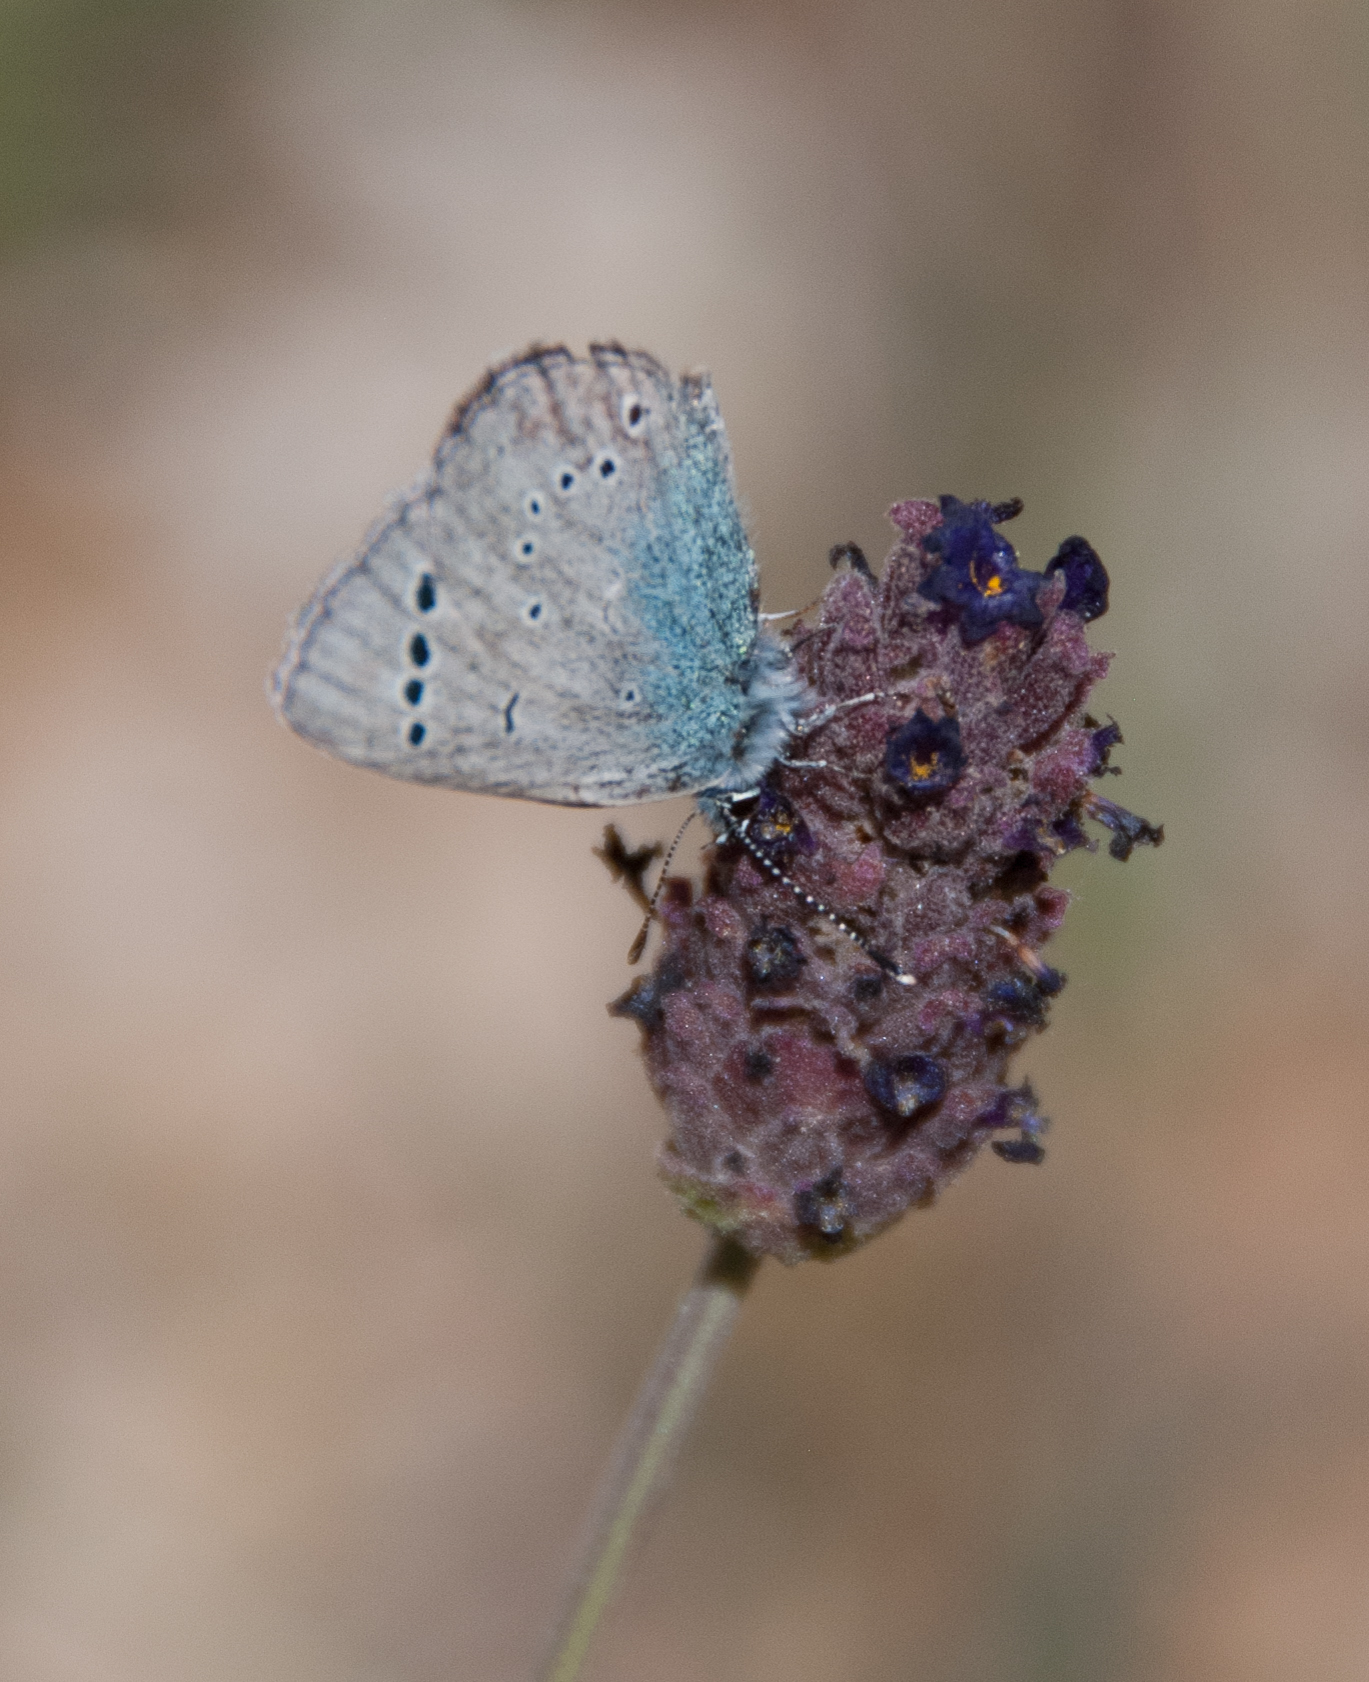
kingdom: Animalia
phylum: Arthropoda
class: Insecta
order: Lepidoptera
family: Lycaenidae
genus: Glaucopsyche
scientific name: Glaucopsyche alexis
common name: Green-underside blue
